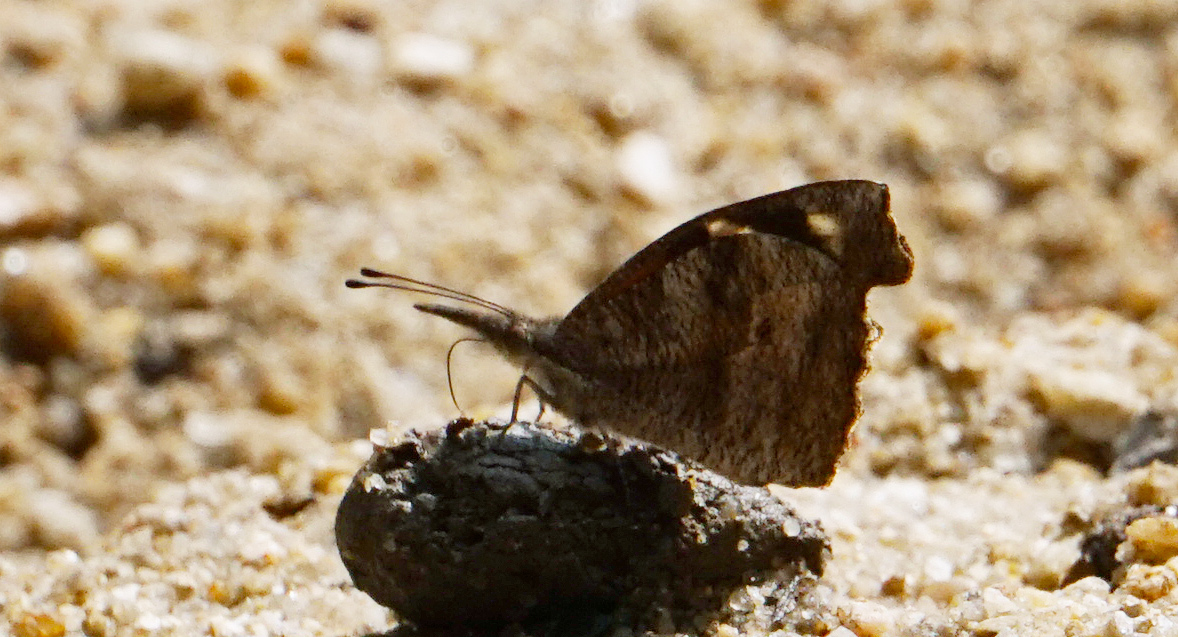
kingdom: Animalia
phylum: Arthropoda
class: Insecta
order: Lepidoptera
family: Nymphalidae
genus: Libytheana
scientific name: Libytheana carinenta
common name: American snout
